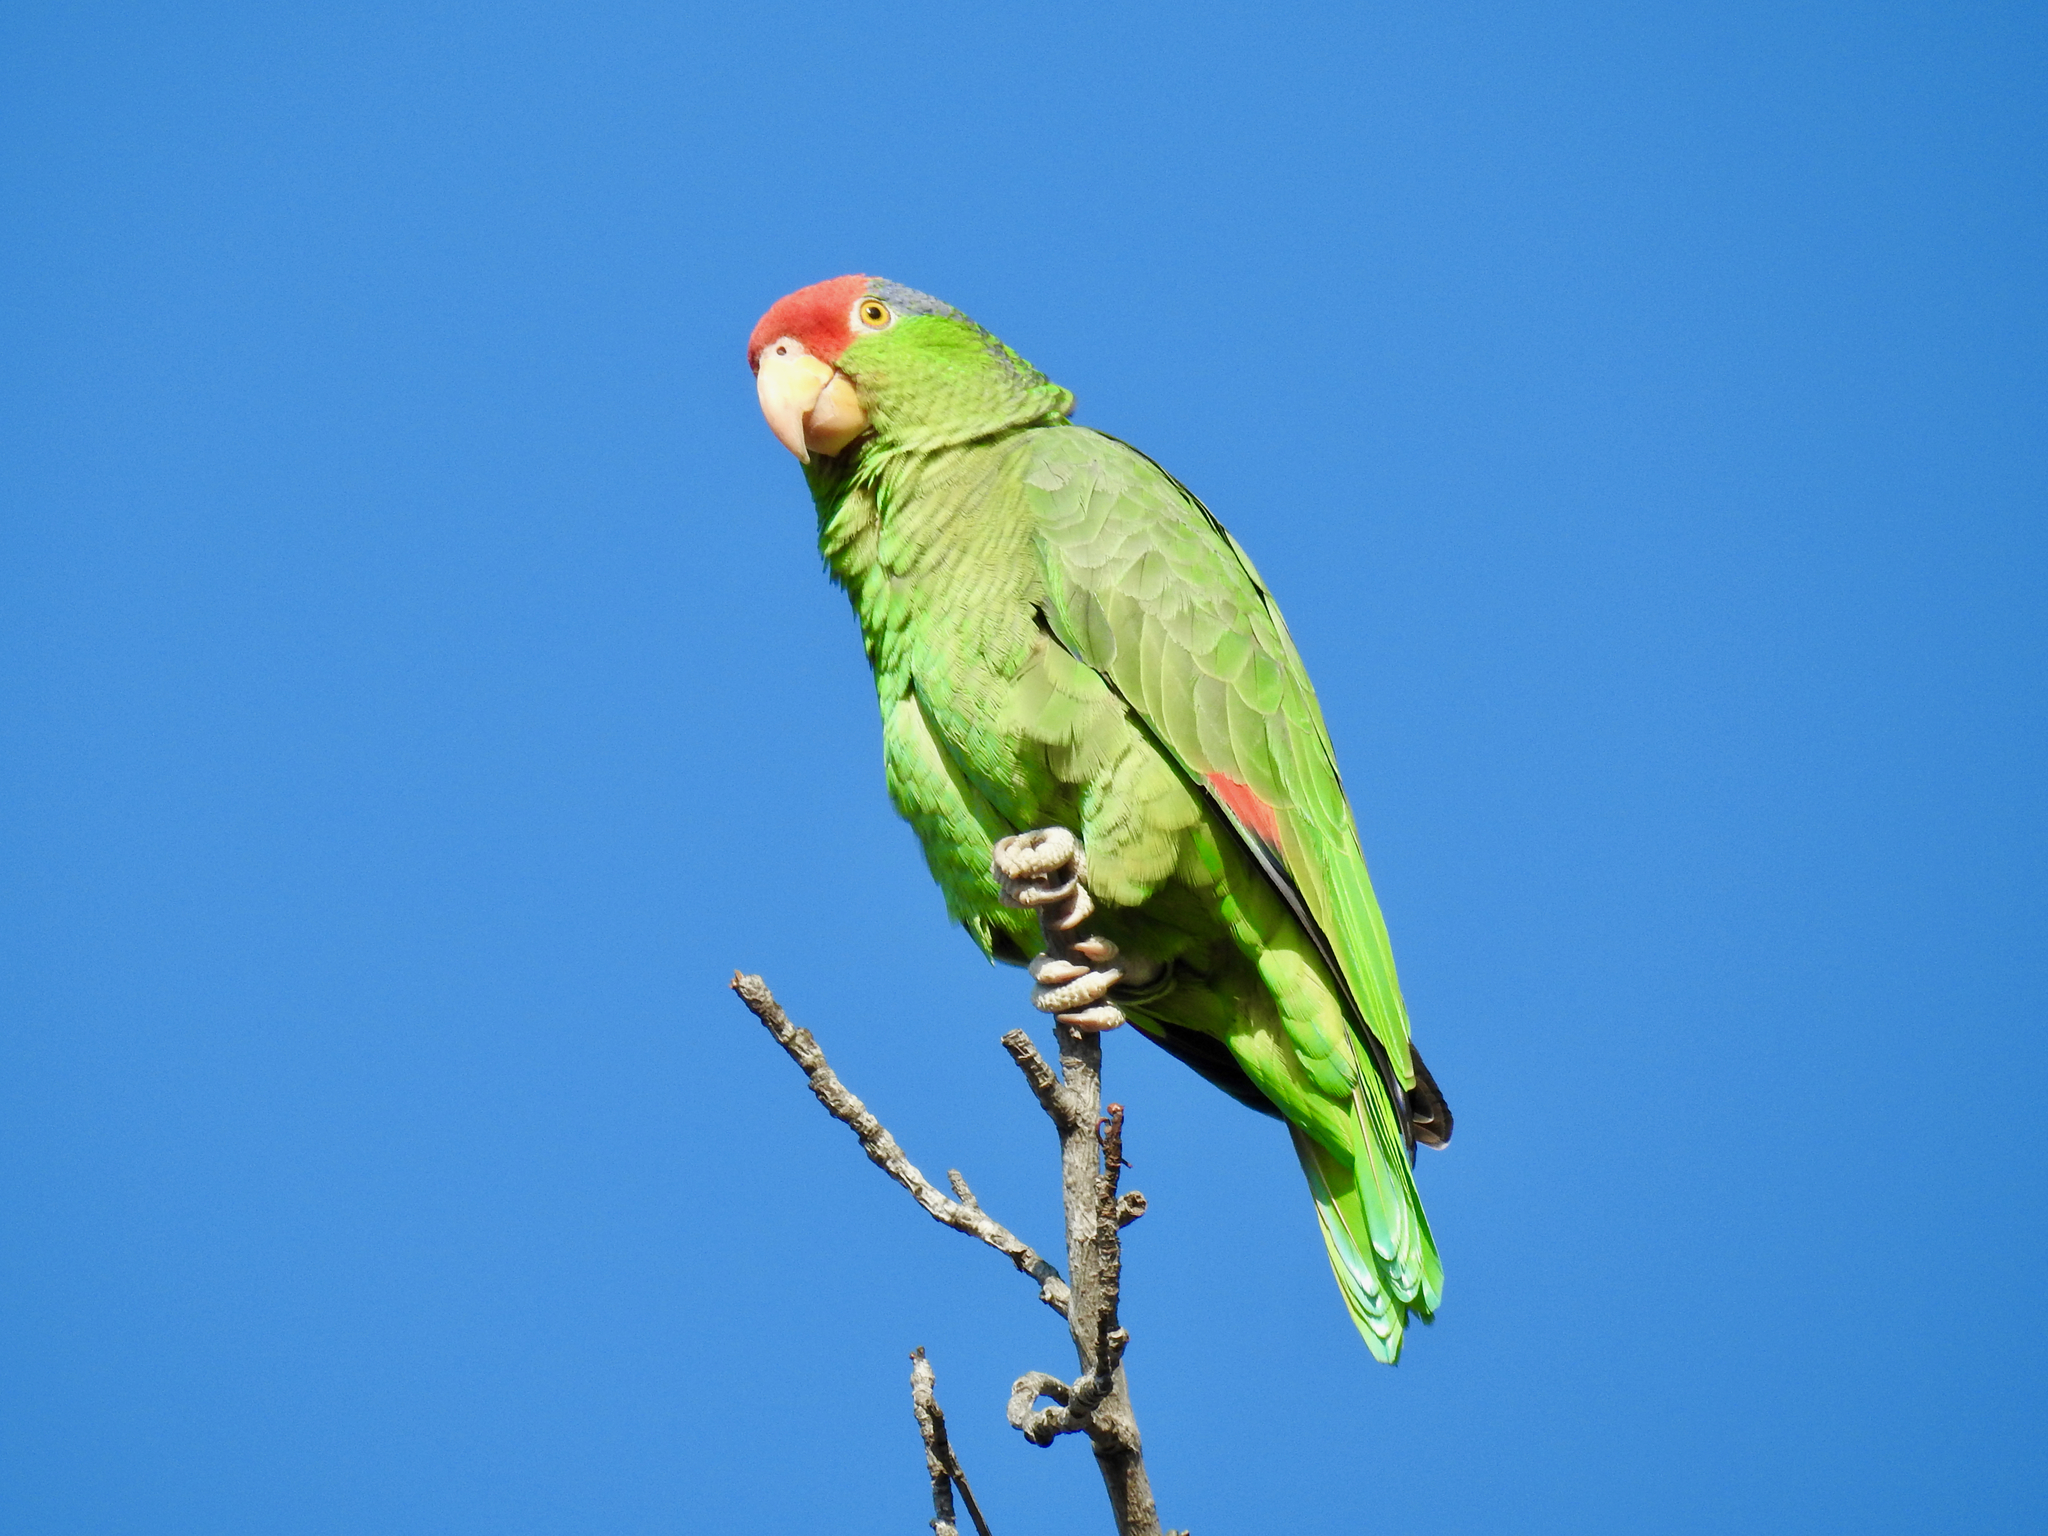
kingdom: Animalia
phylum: Chordata
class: Aves
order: Psittaciformes
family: Psittacidae
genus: Amazona
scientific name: Amazona viridigenalis
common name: Red-crowned amazon
